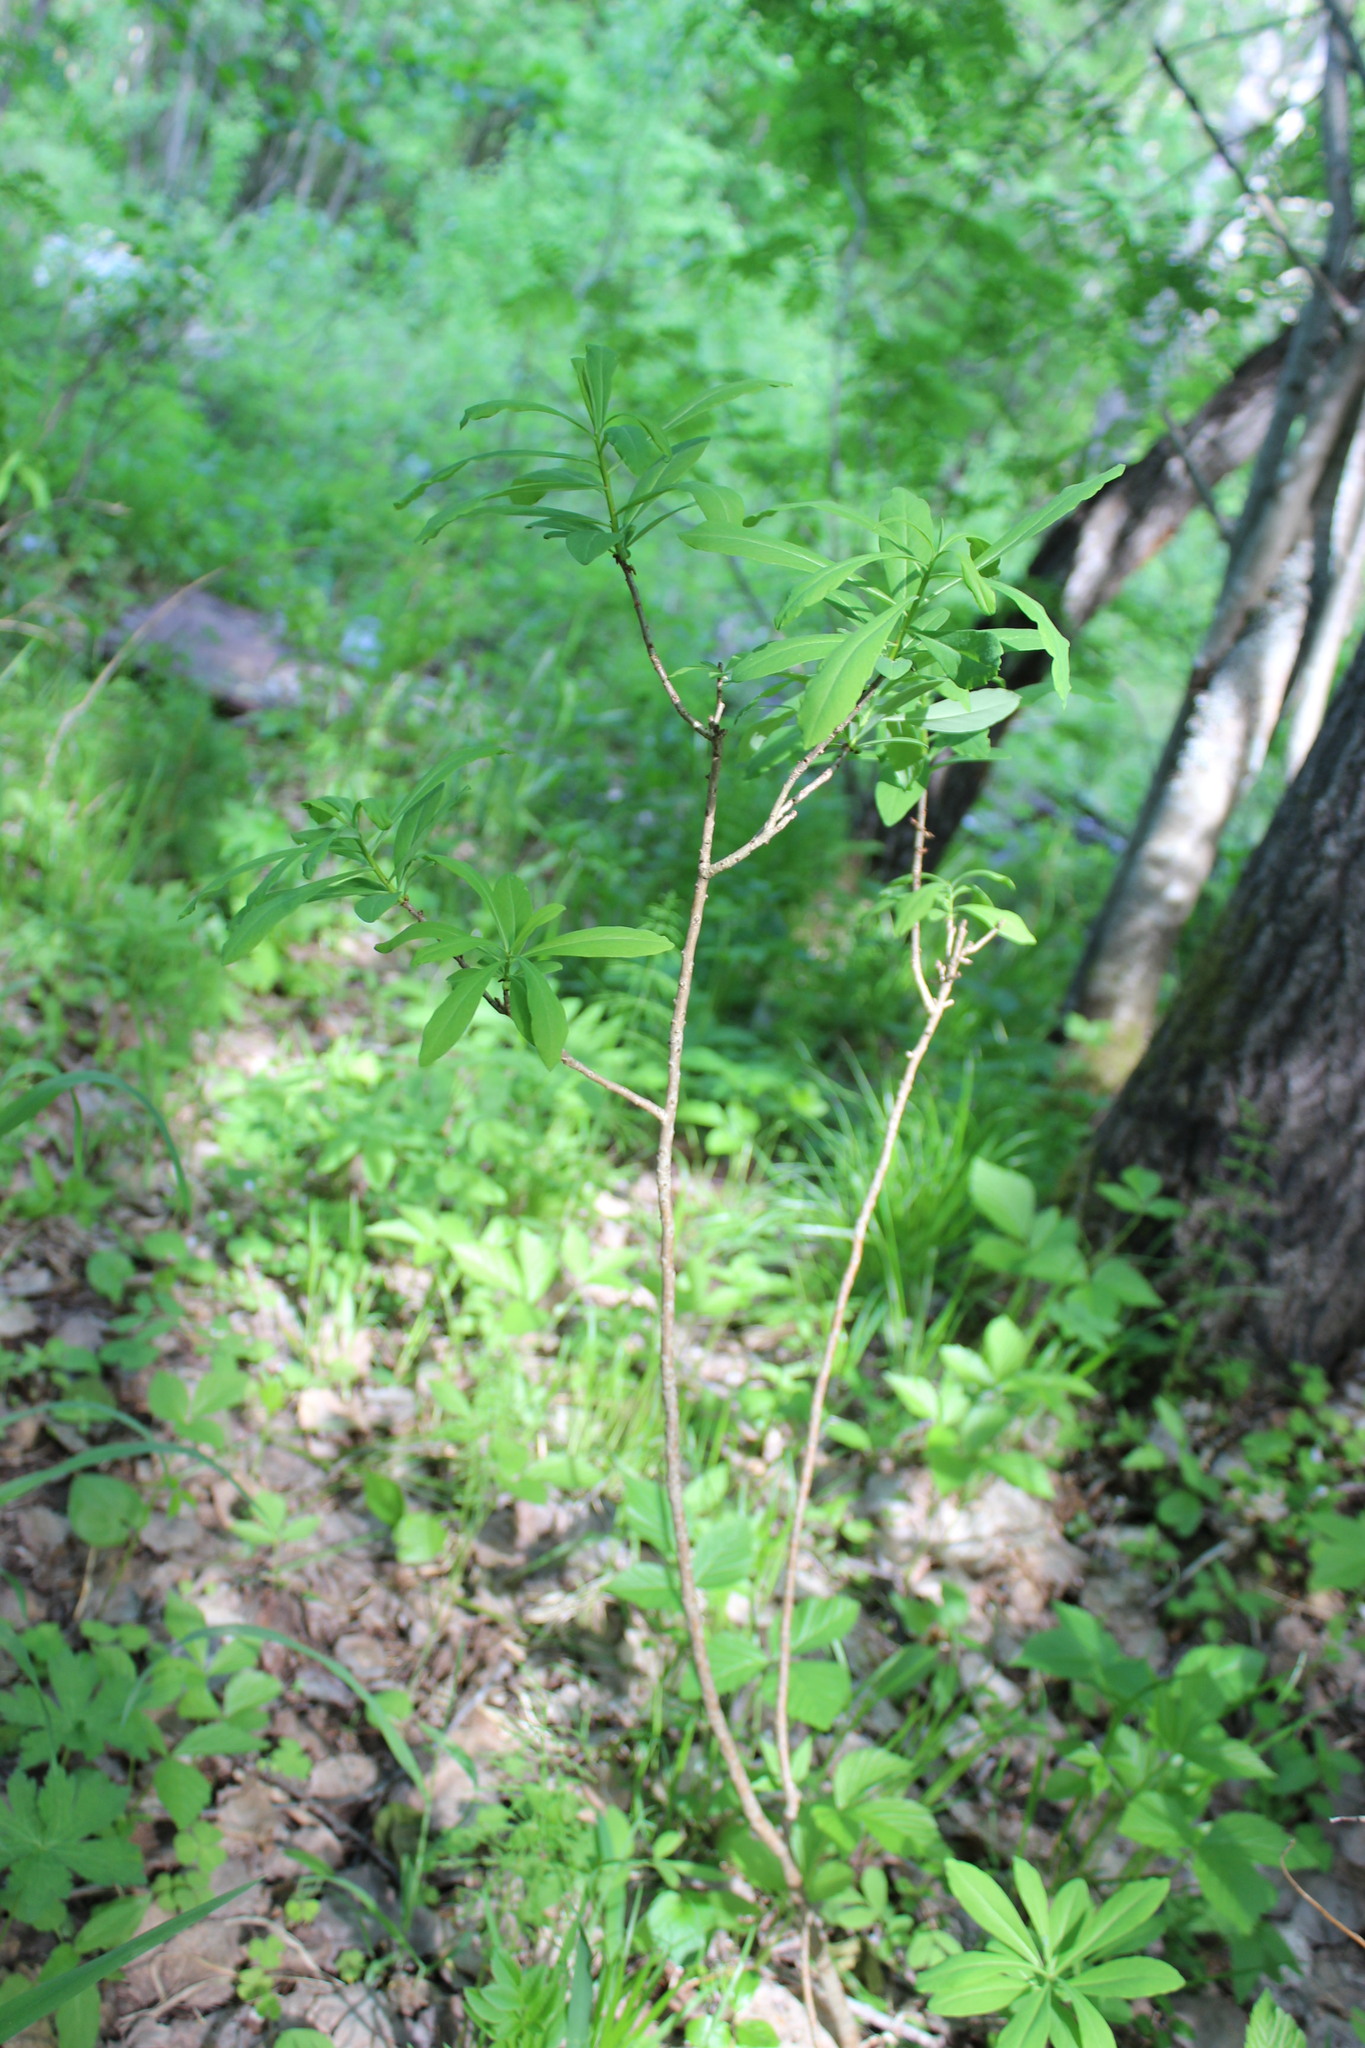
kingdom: Plantae
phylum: Tracheophyta
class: Magnoliopsida
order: Malvales
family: Thymelaeaceae
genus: Daphne
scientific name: Daphne mezereum
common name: Mezereon
